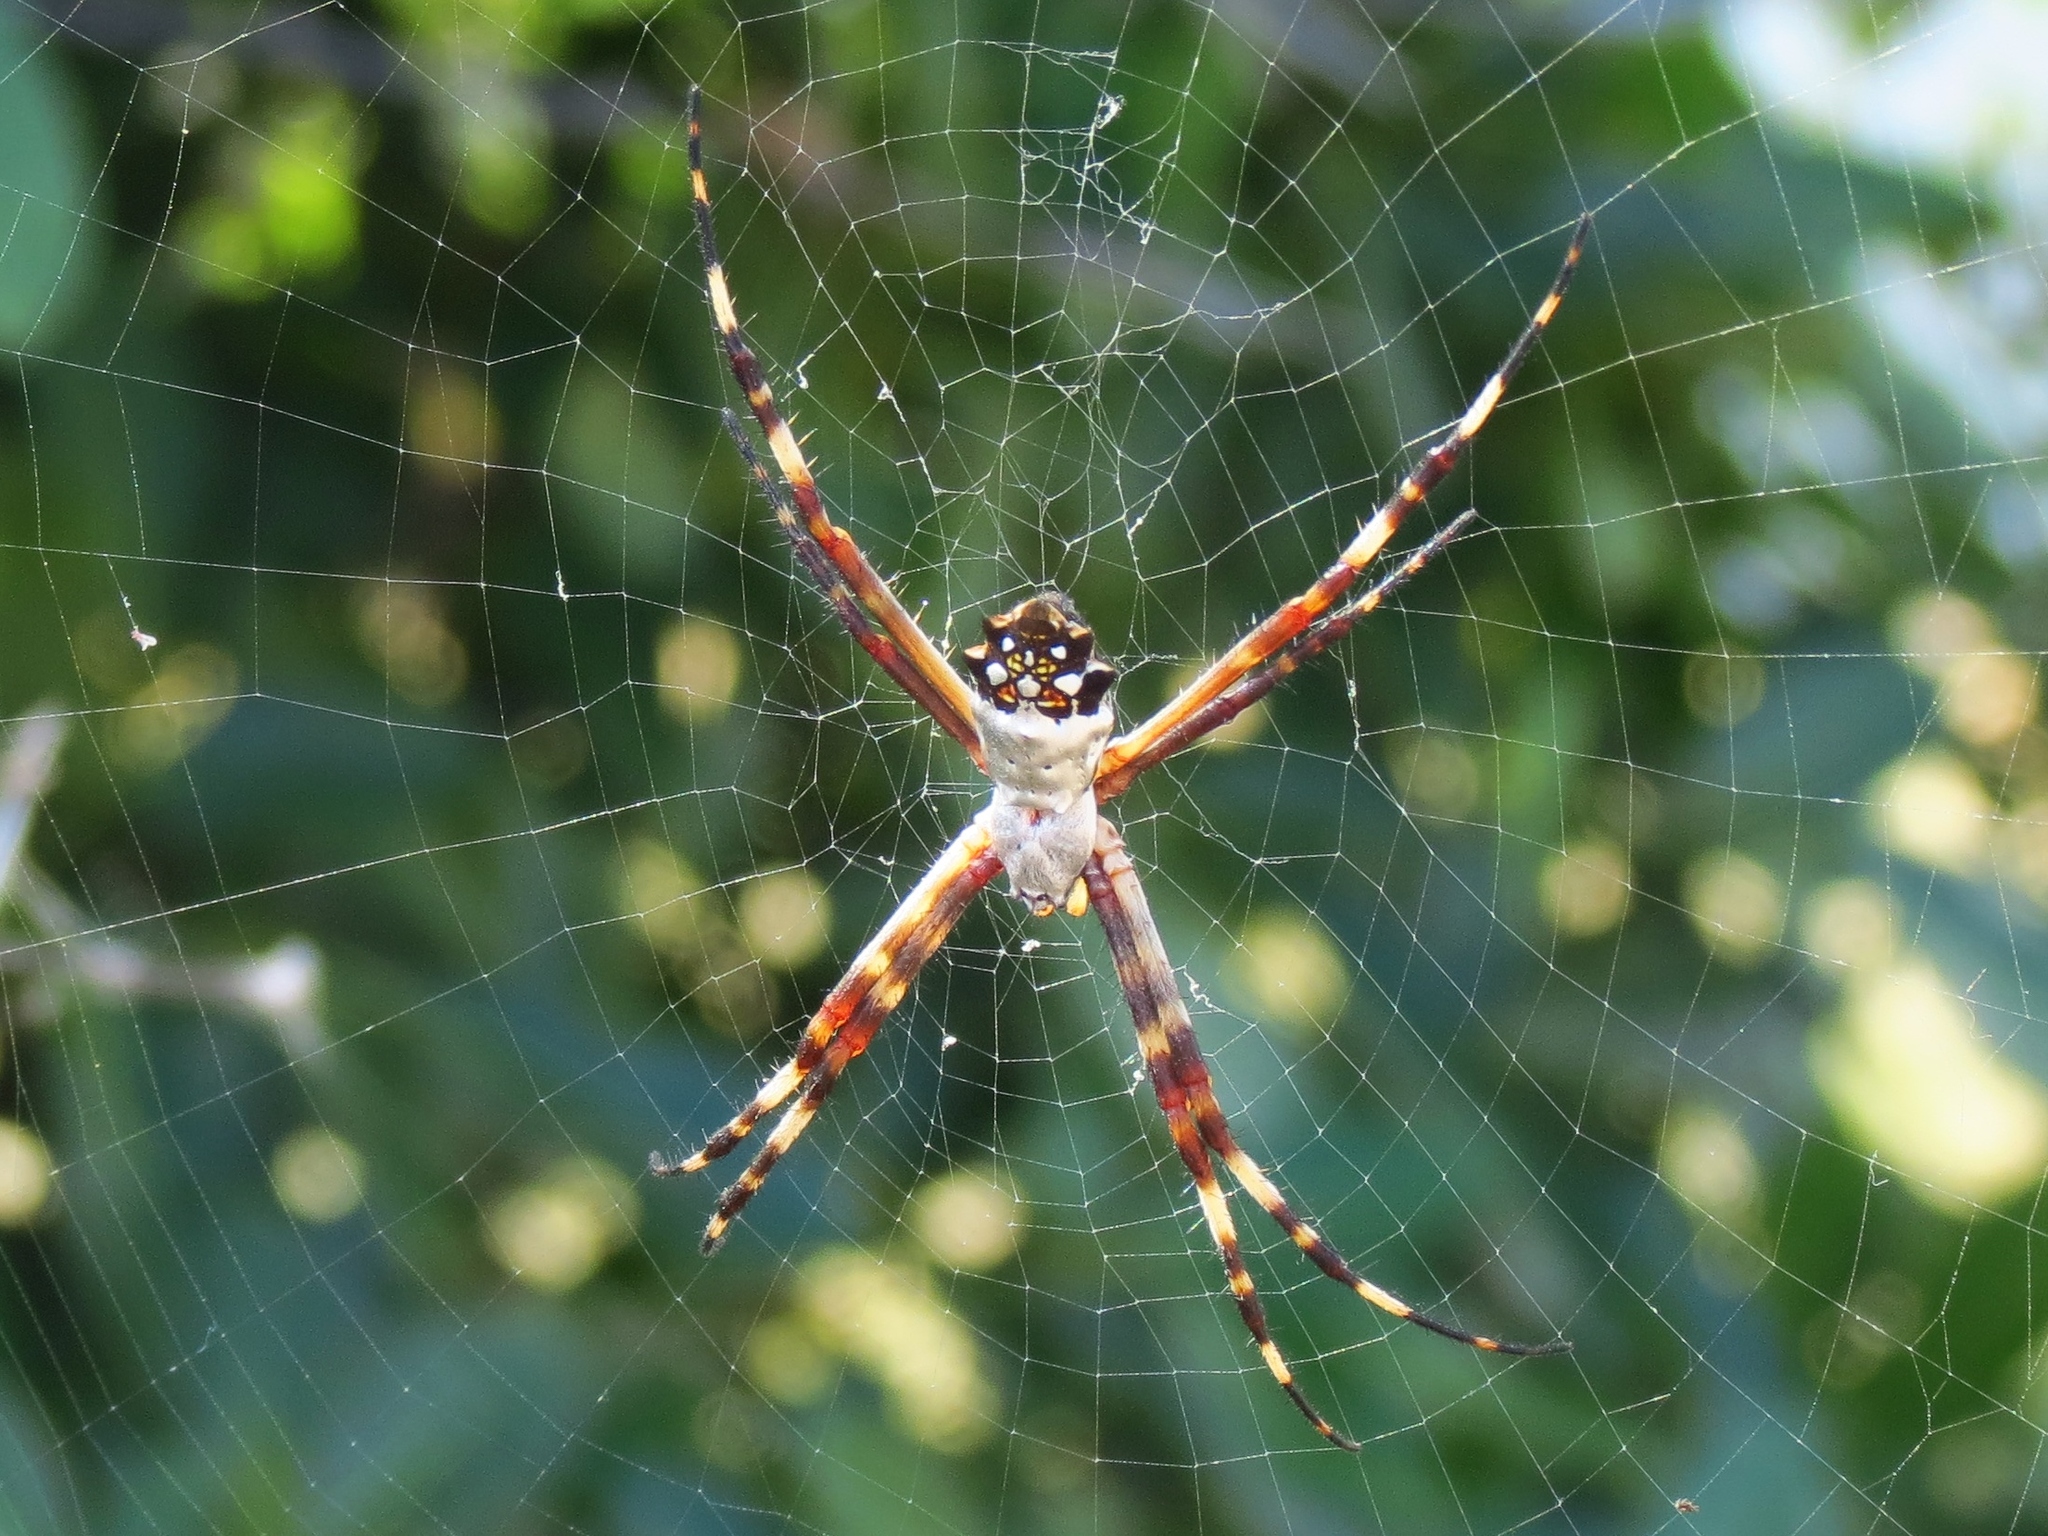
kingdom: Animalia
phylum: Arthropoda
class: Arachnida
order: Araneae
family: Araneidae
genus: Argiope
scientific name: Argiope argentata
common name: Orb weavers
